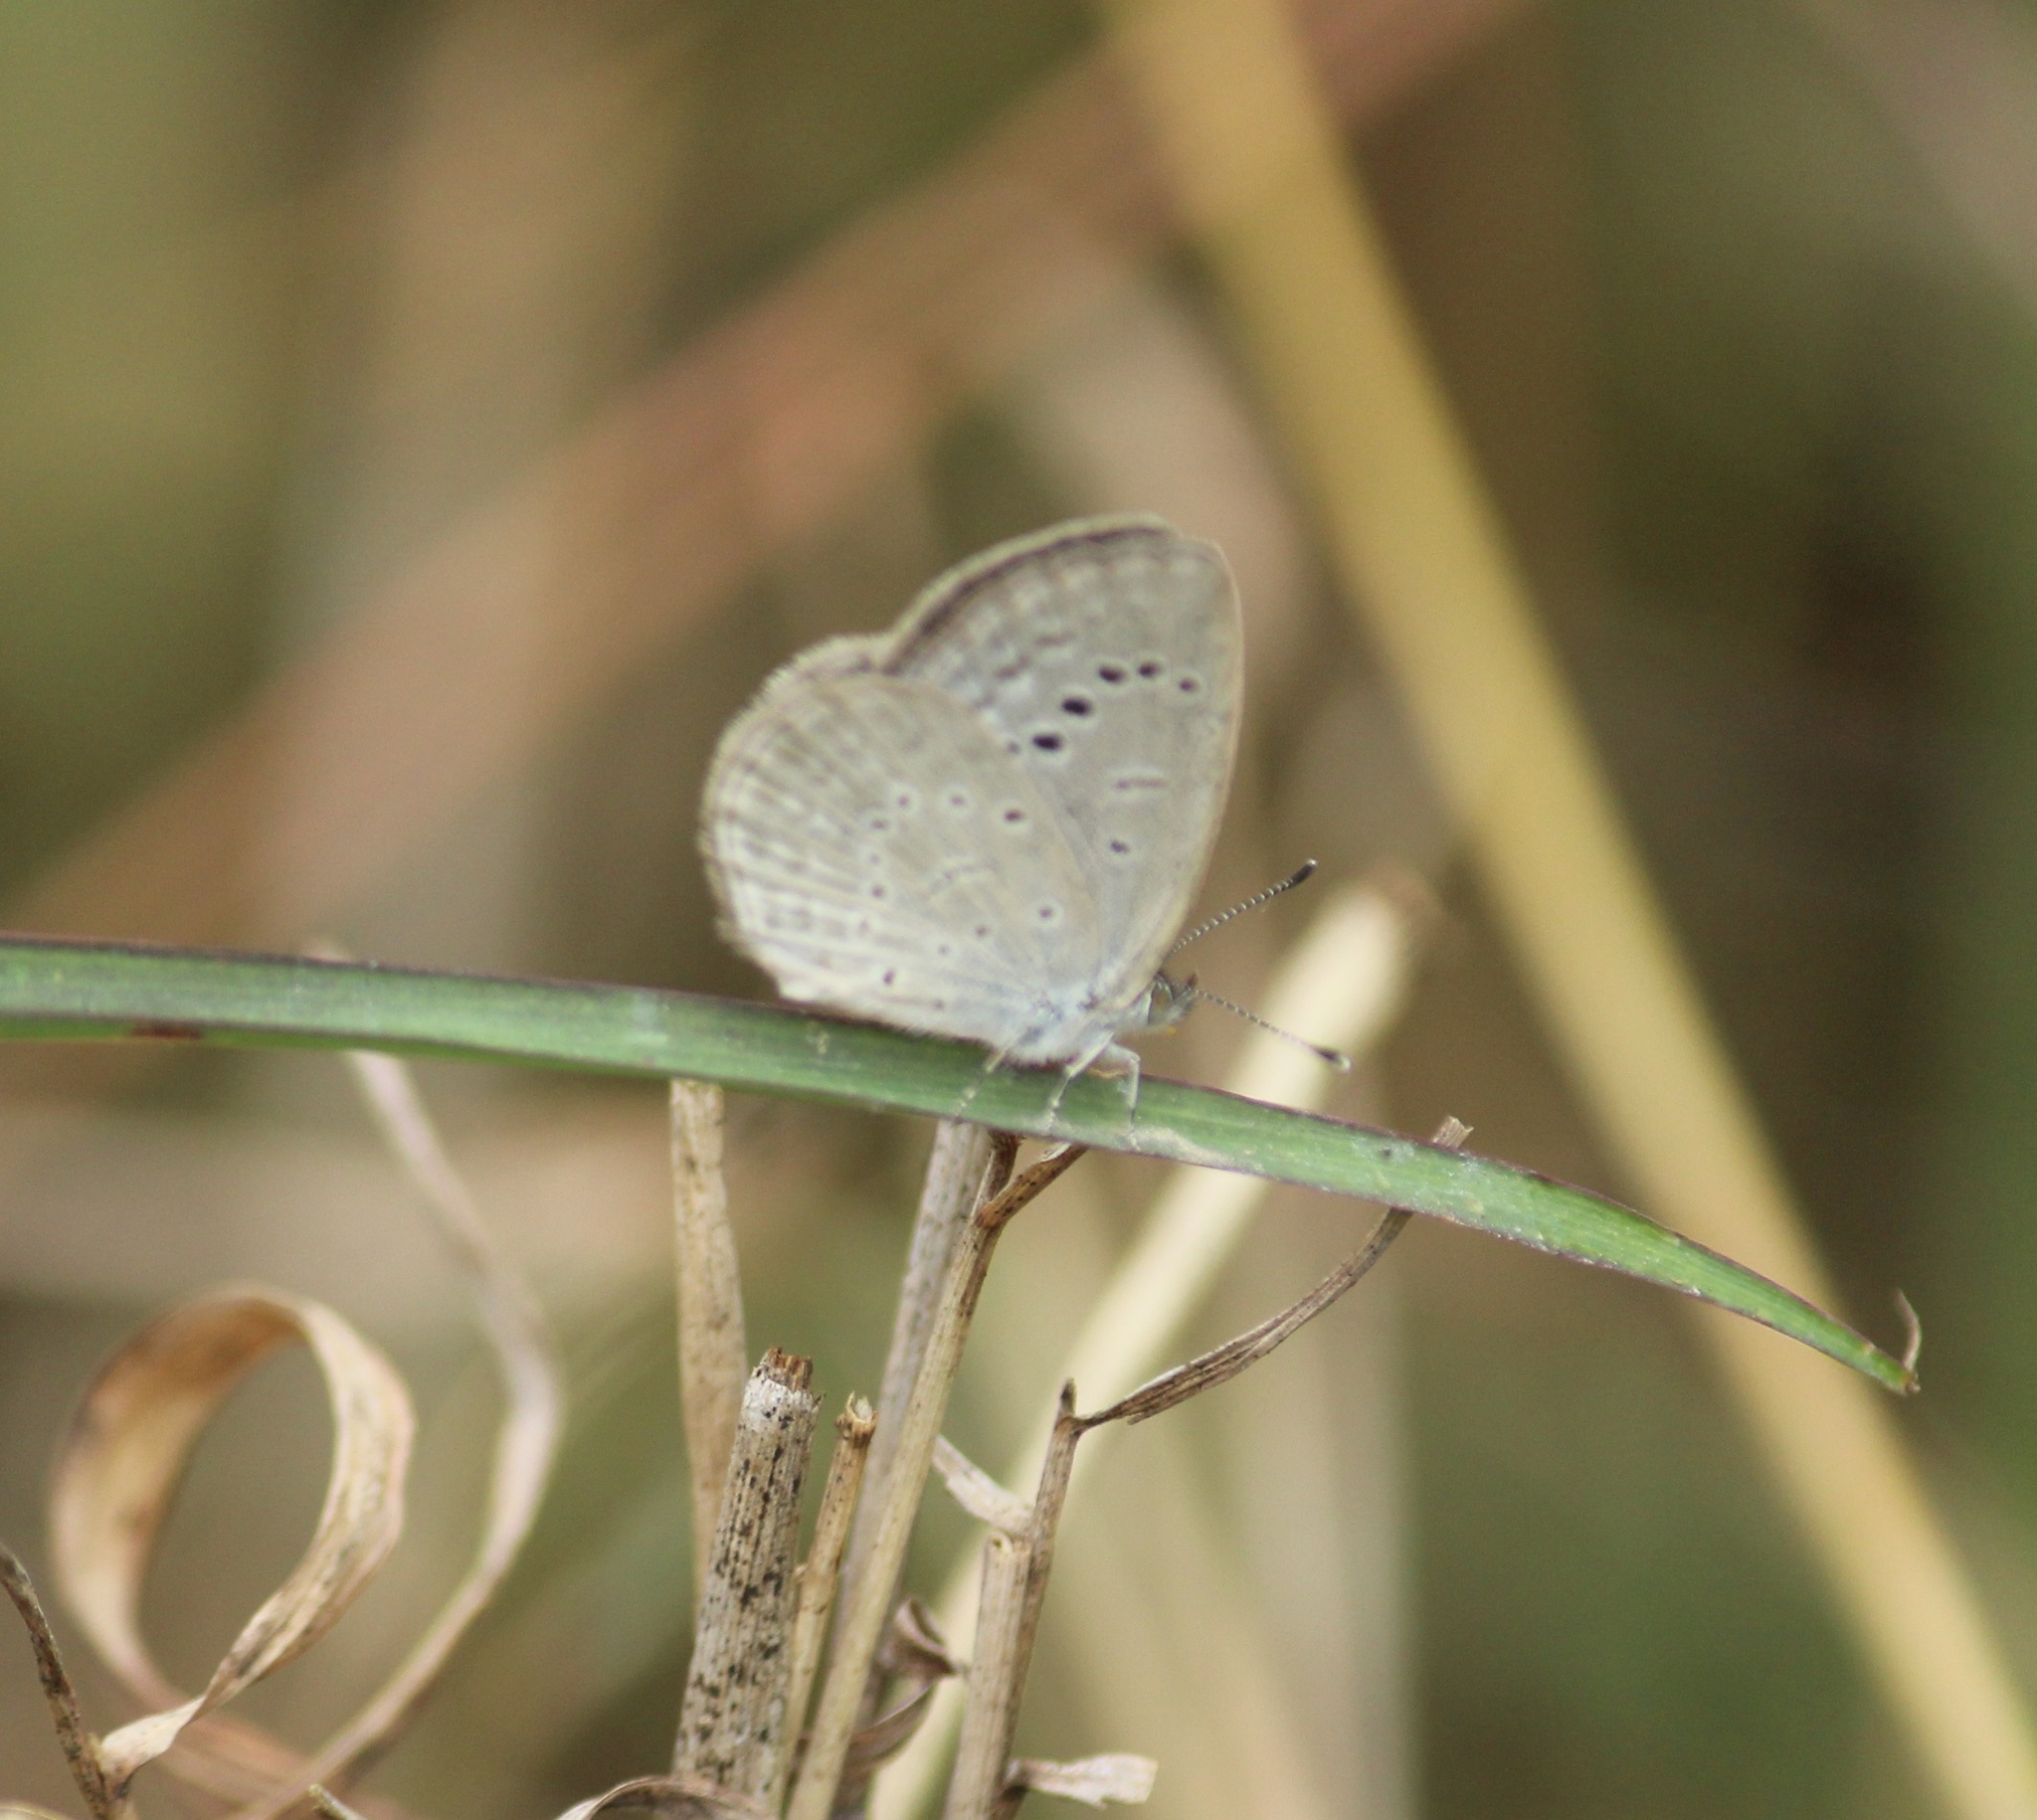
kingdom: Animalia
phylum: Arthropoda
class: Insecta
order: Lepidoptera
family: Lycaenidae
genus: Pseudozizeeria
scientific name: Pseudozizeeria maha
